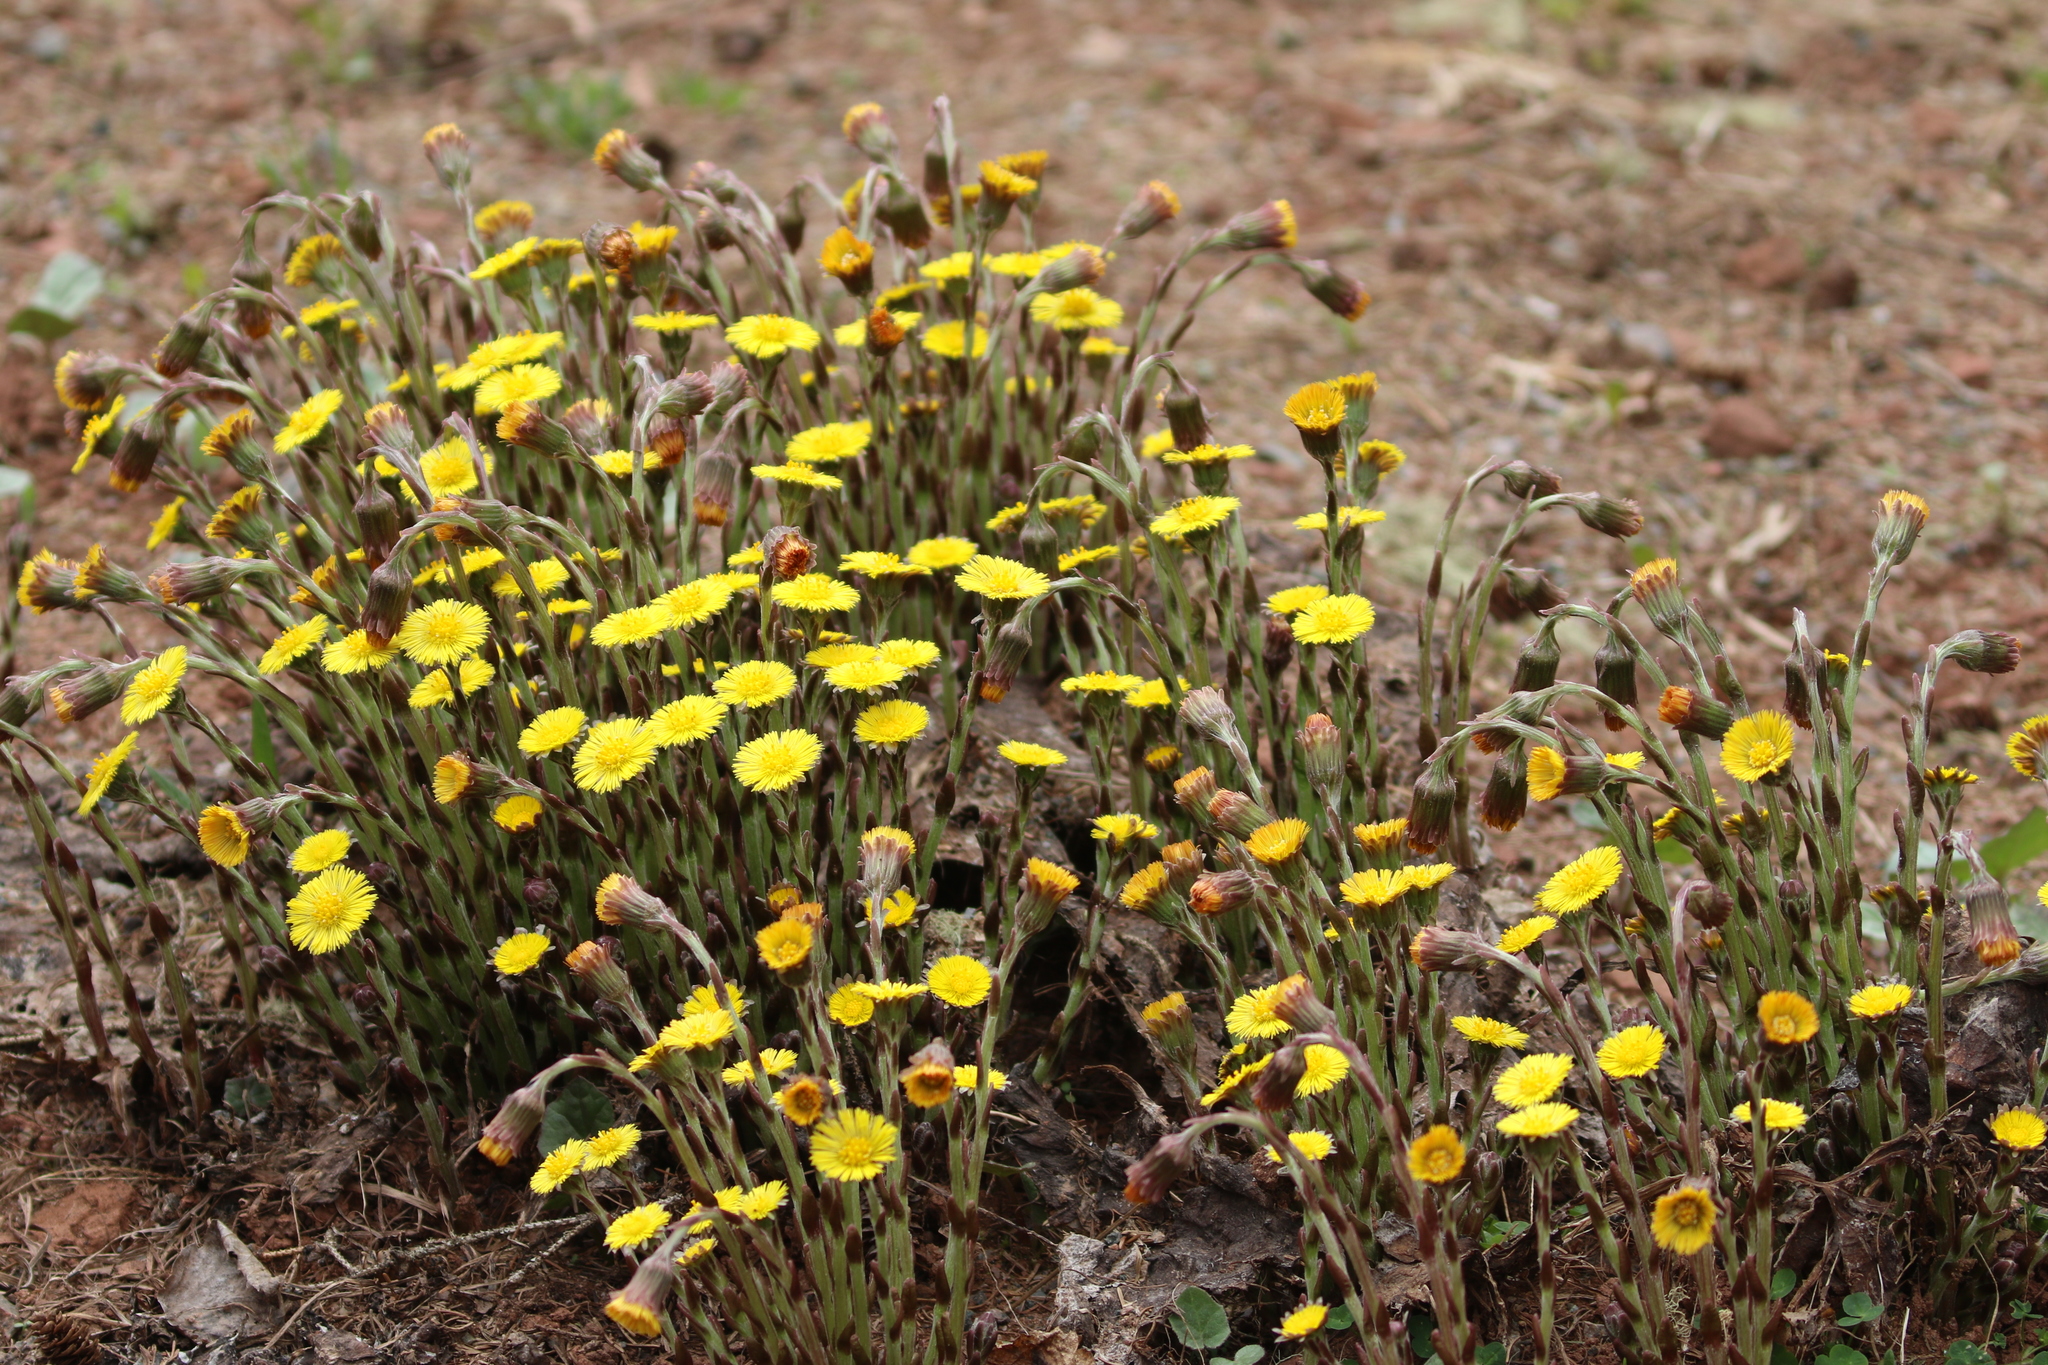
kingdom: Plantae
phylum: Tracheophyta
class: Magnoliopsida
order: Asterales
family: Asteraceae
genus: Tussilago
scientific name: Tussilago farfara
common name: Coltsfoot
